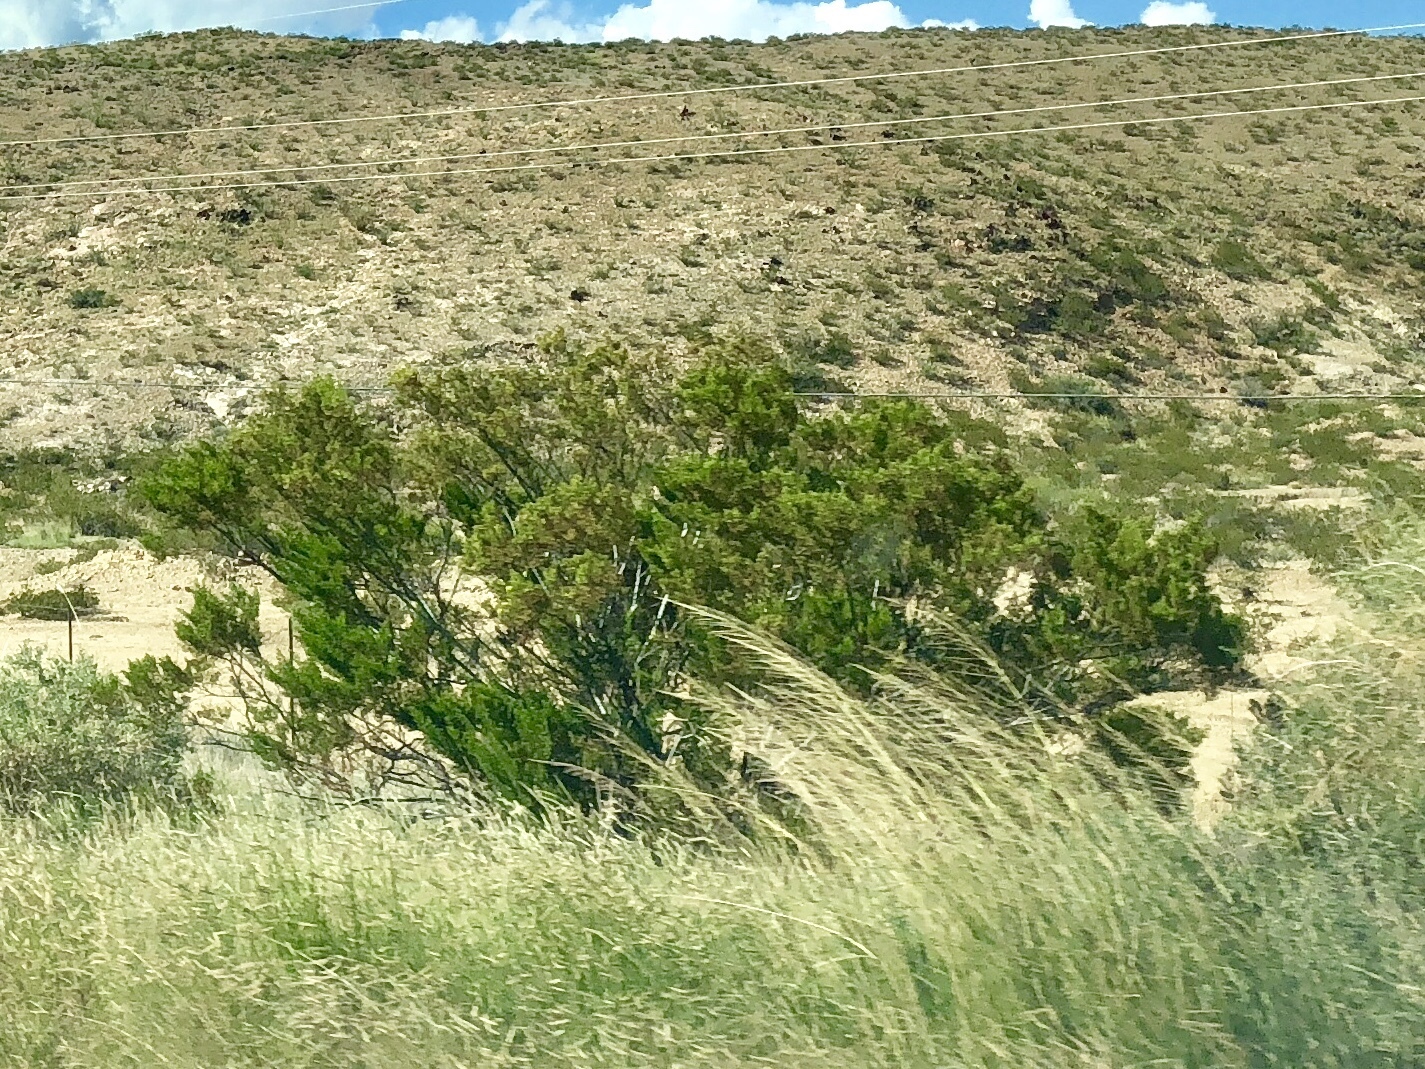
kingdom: Plantae
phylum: Tracheophyta
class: Magnoliopsida
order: Zygophyllales
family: Zygophyllaceae
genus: Larrea
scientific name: Larrea tridentata
